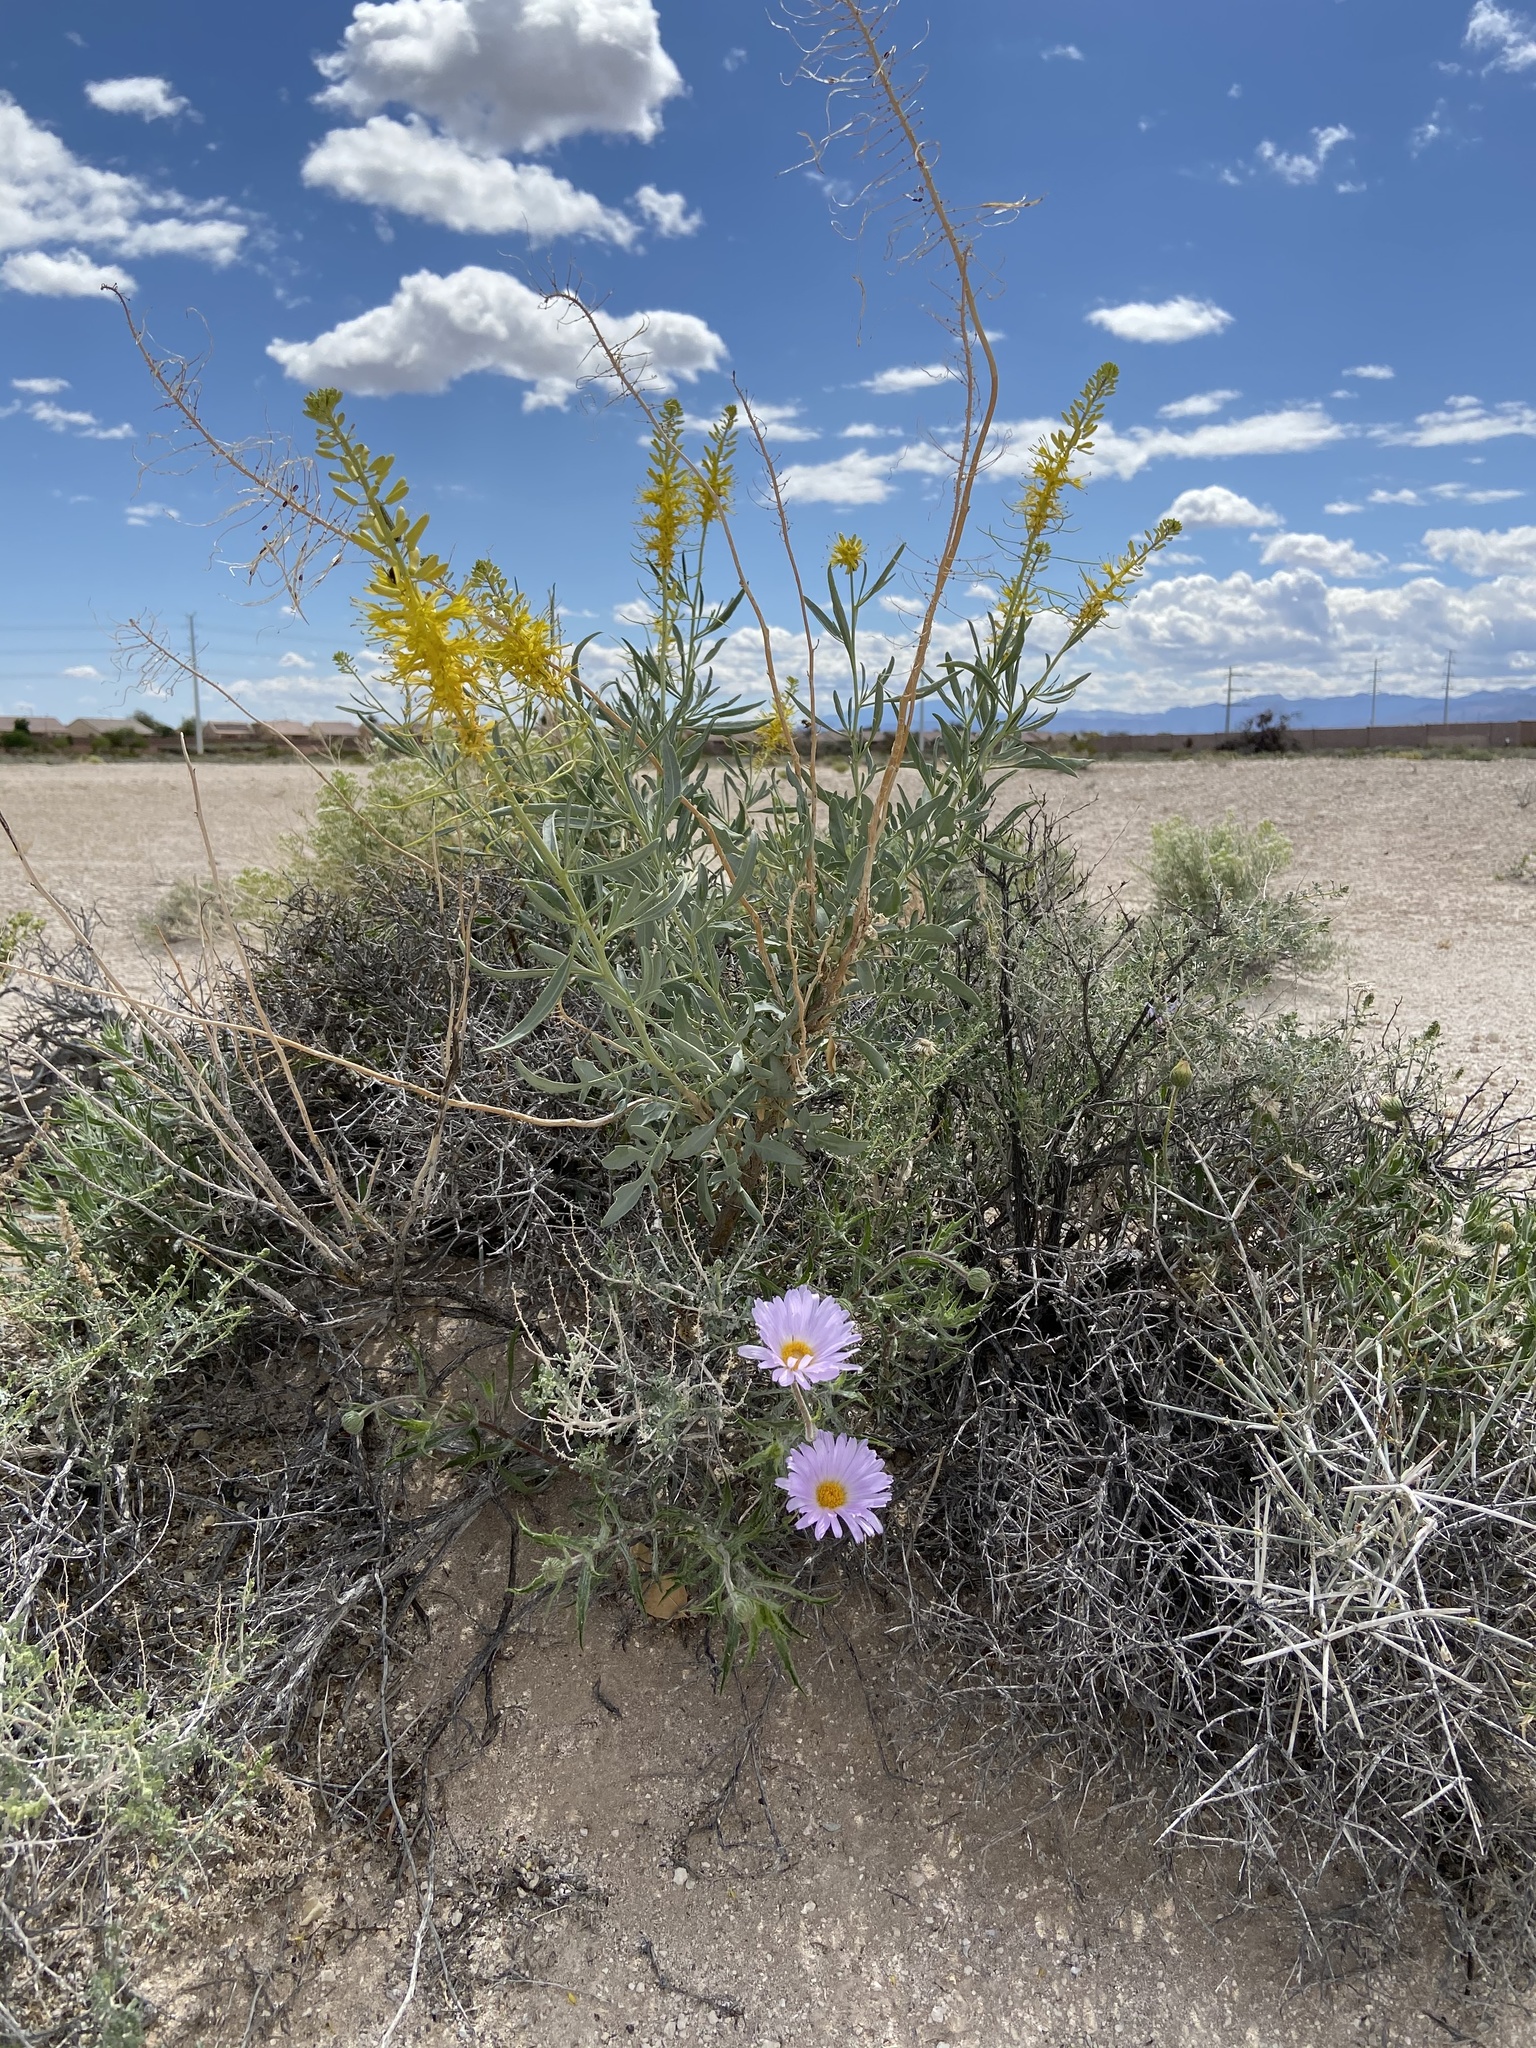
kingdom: Plantae
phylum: Tracheophyta
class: Magnoliopsida
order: Asterales
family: Asteraceae
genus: Xylorhiza
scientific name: Xylorhiza tortifolia
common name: Hurt-leaf woody-aster
